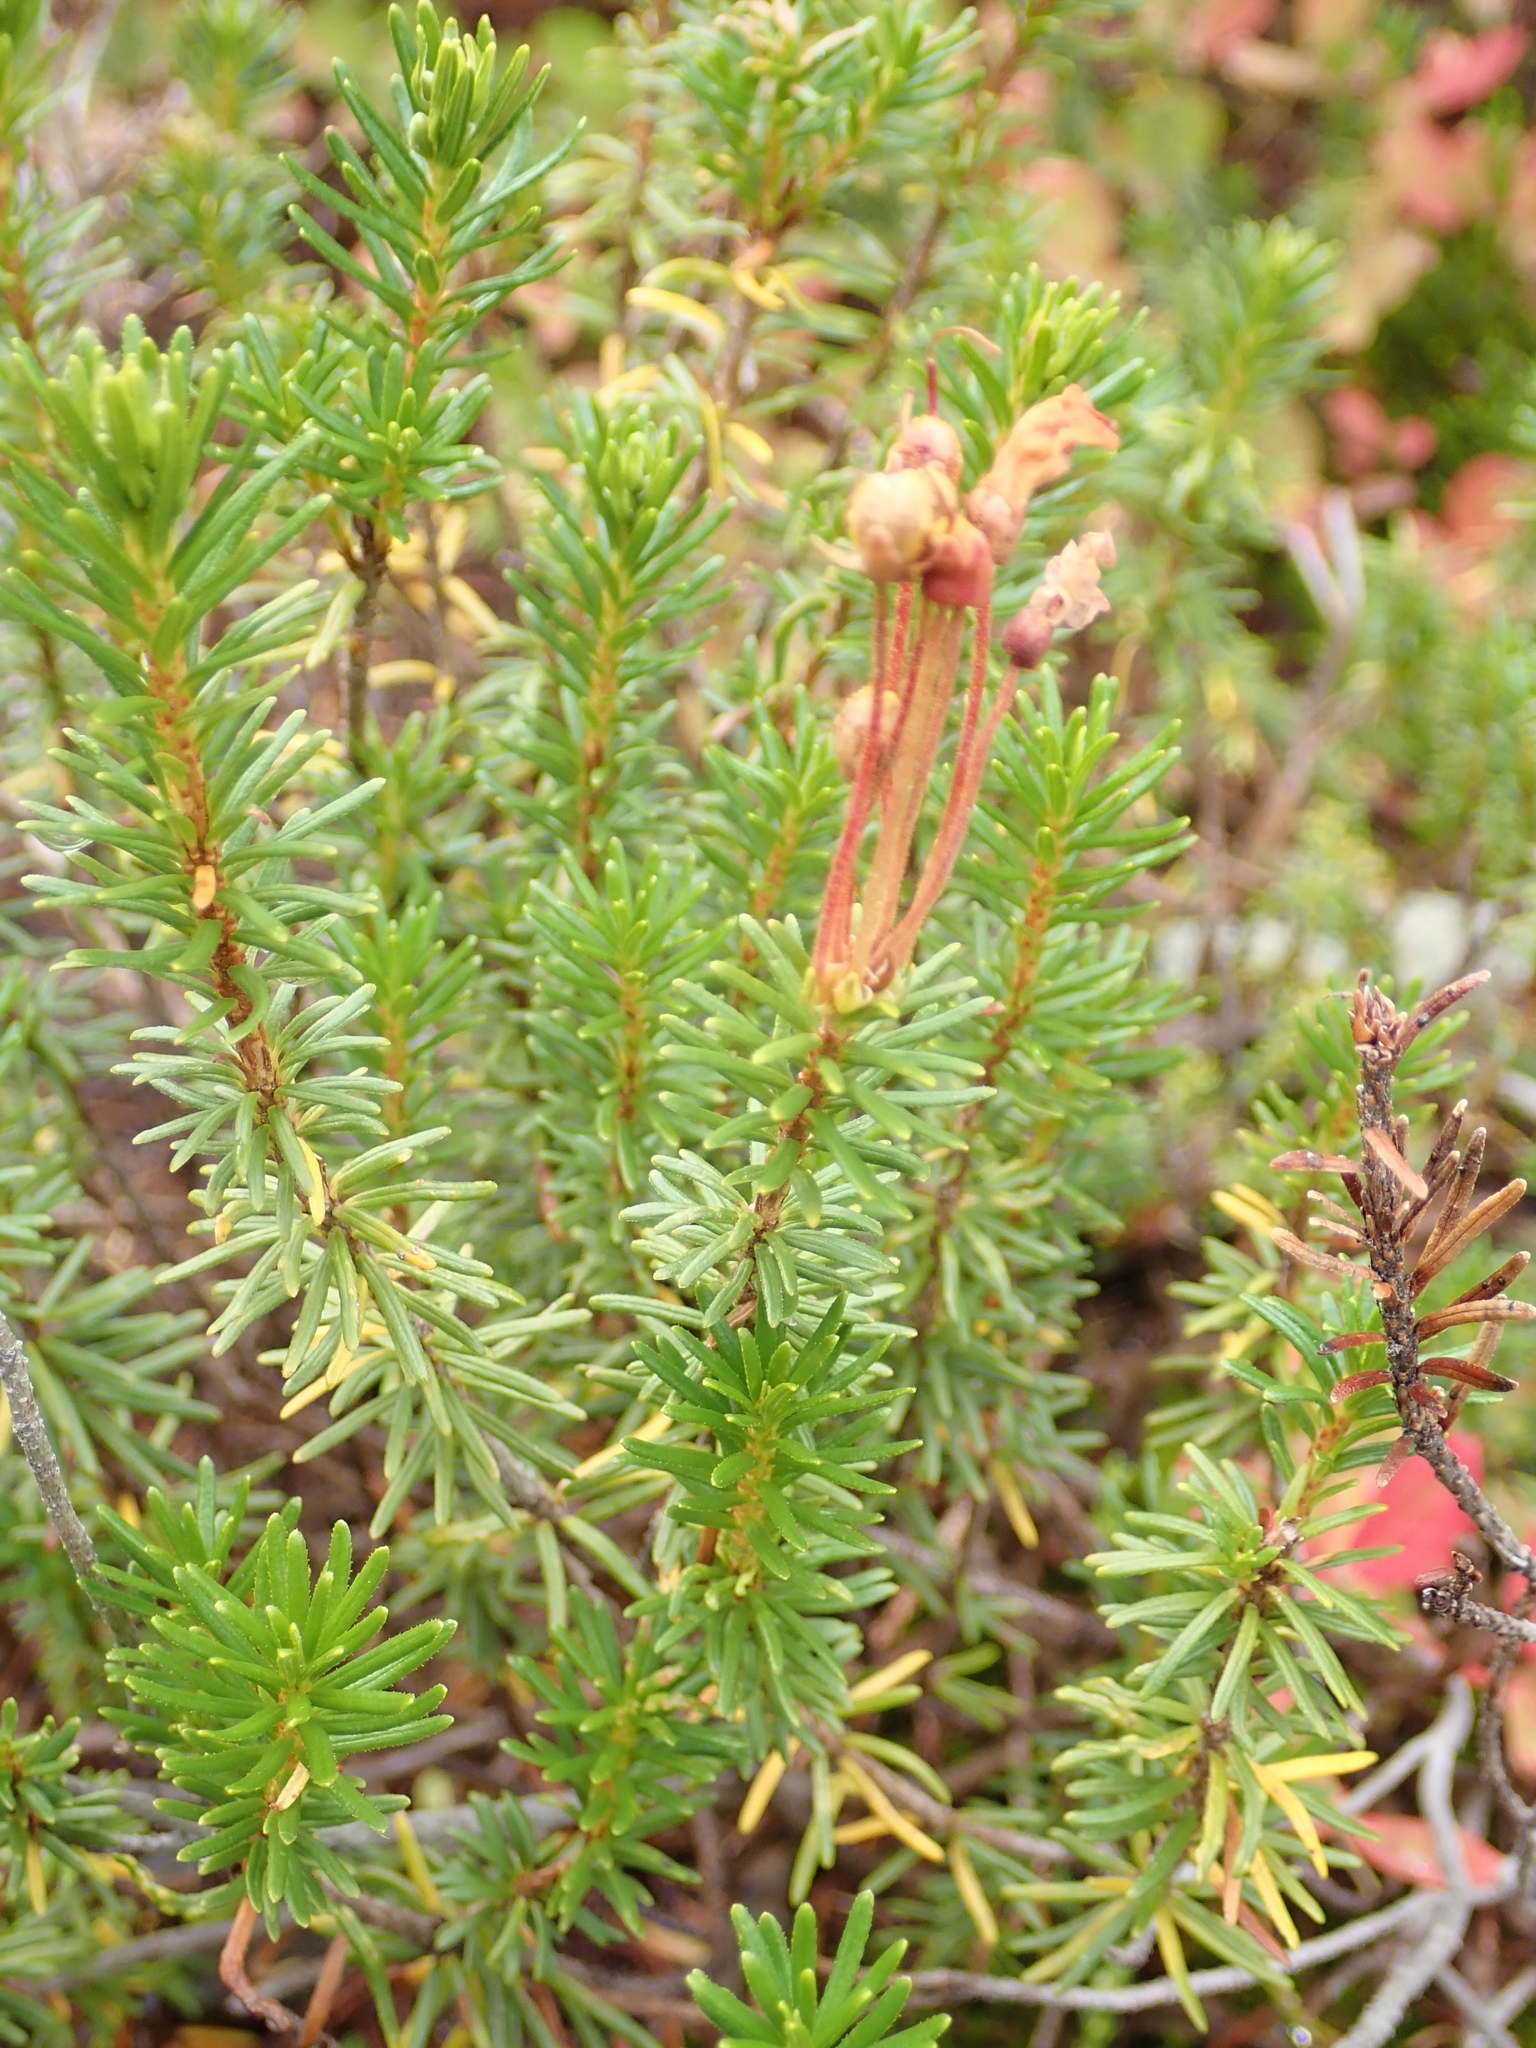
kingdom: Plantae
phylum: Tracheophyta
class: Magnoliopsida
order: Ericales
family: Ericaceae
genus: Phyllodoce
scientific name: Phyllodoce empetriformis
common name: Pink mountain heather
